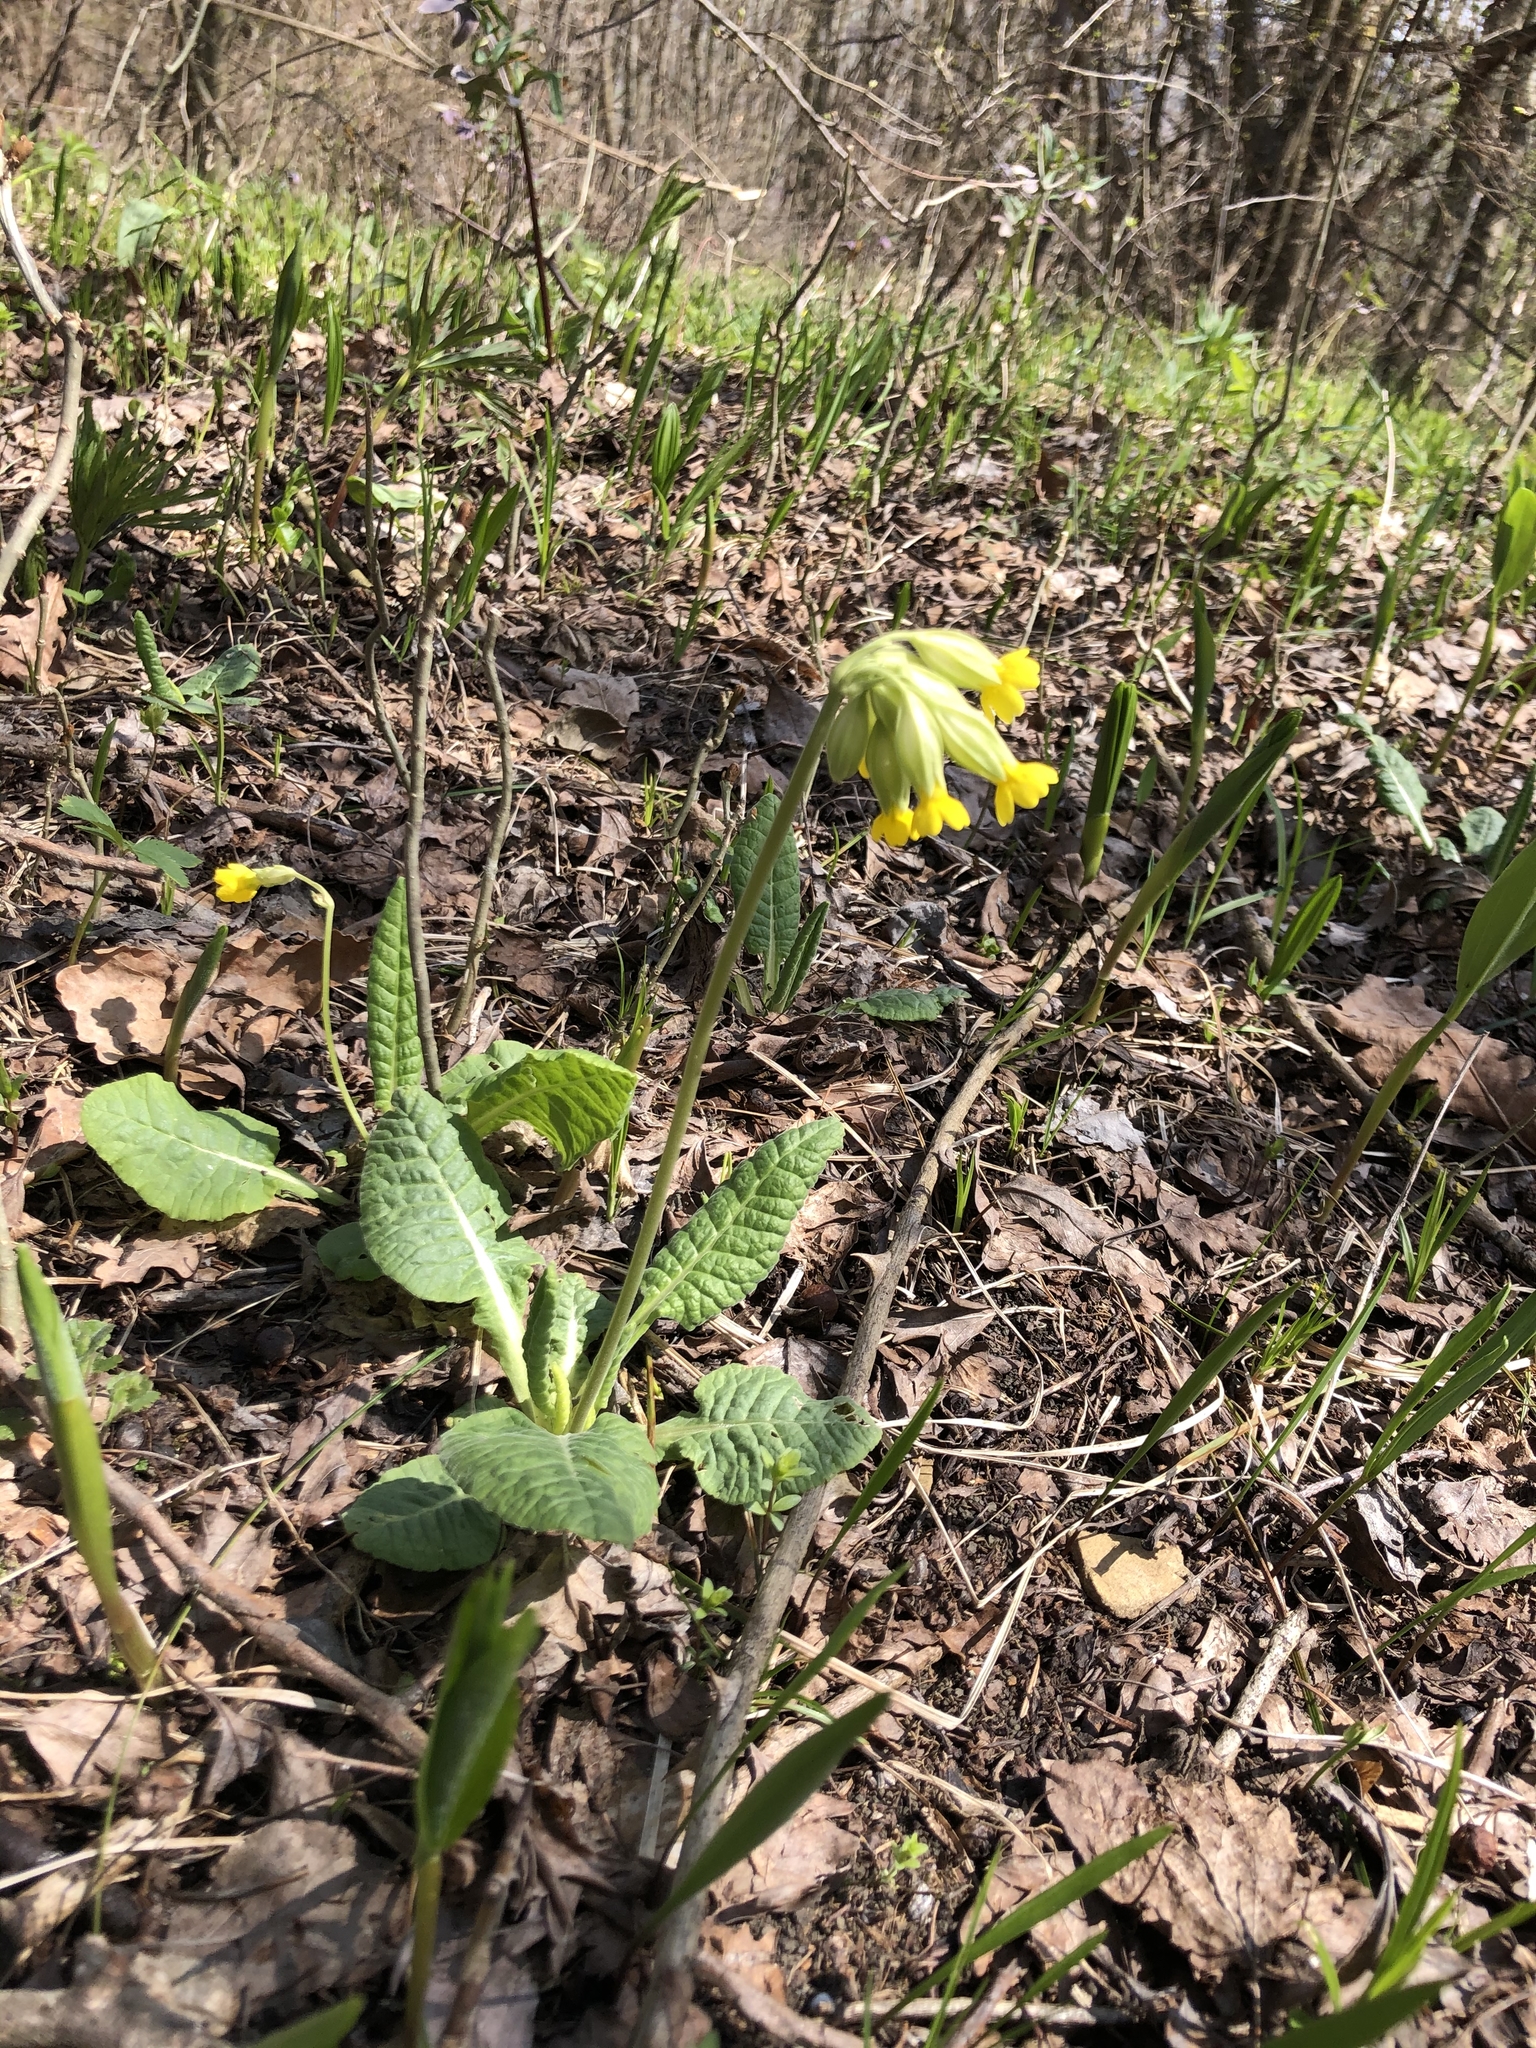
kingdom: Plantae
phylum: Tracheophyta
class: Magnoliopsida
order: Ericales
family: Primulaceae
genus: Primula
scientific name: Primula veris
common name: Cowslip
